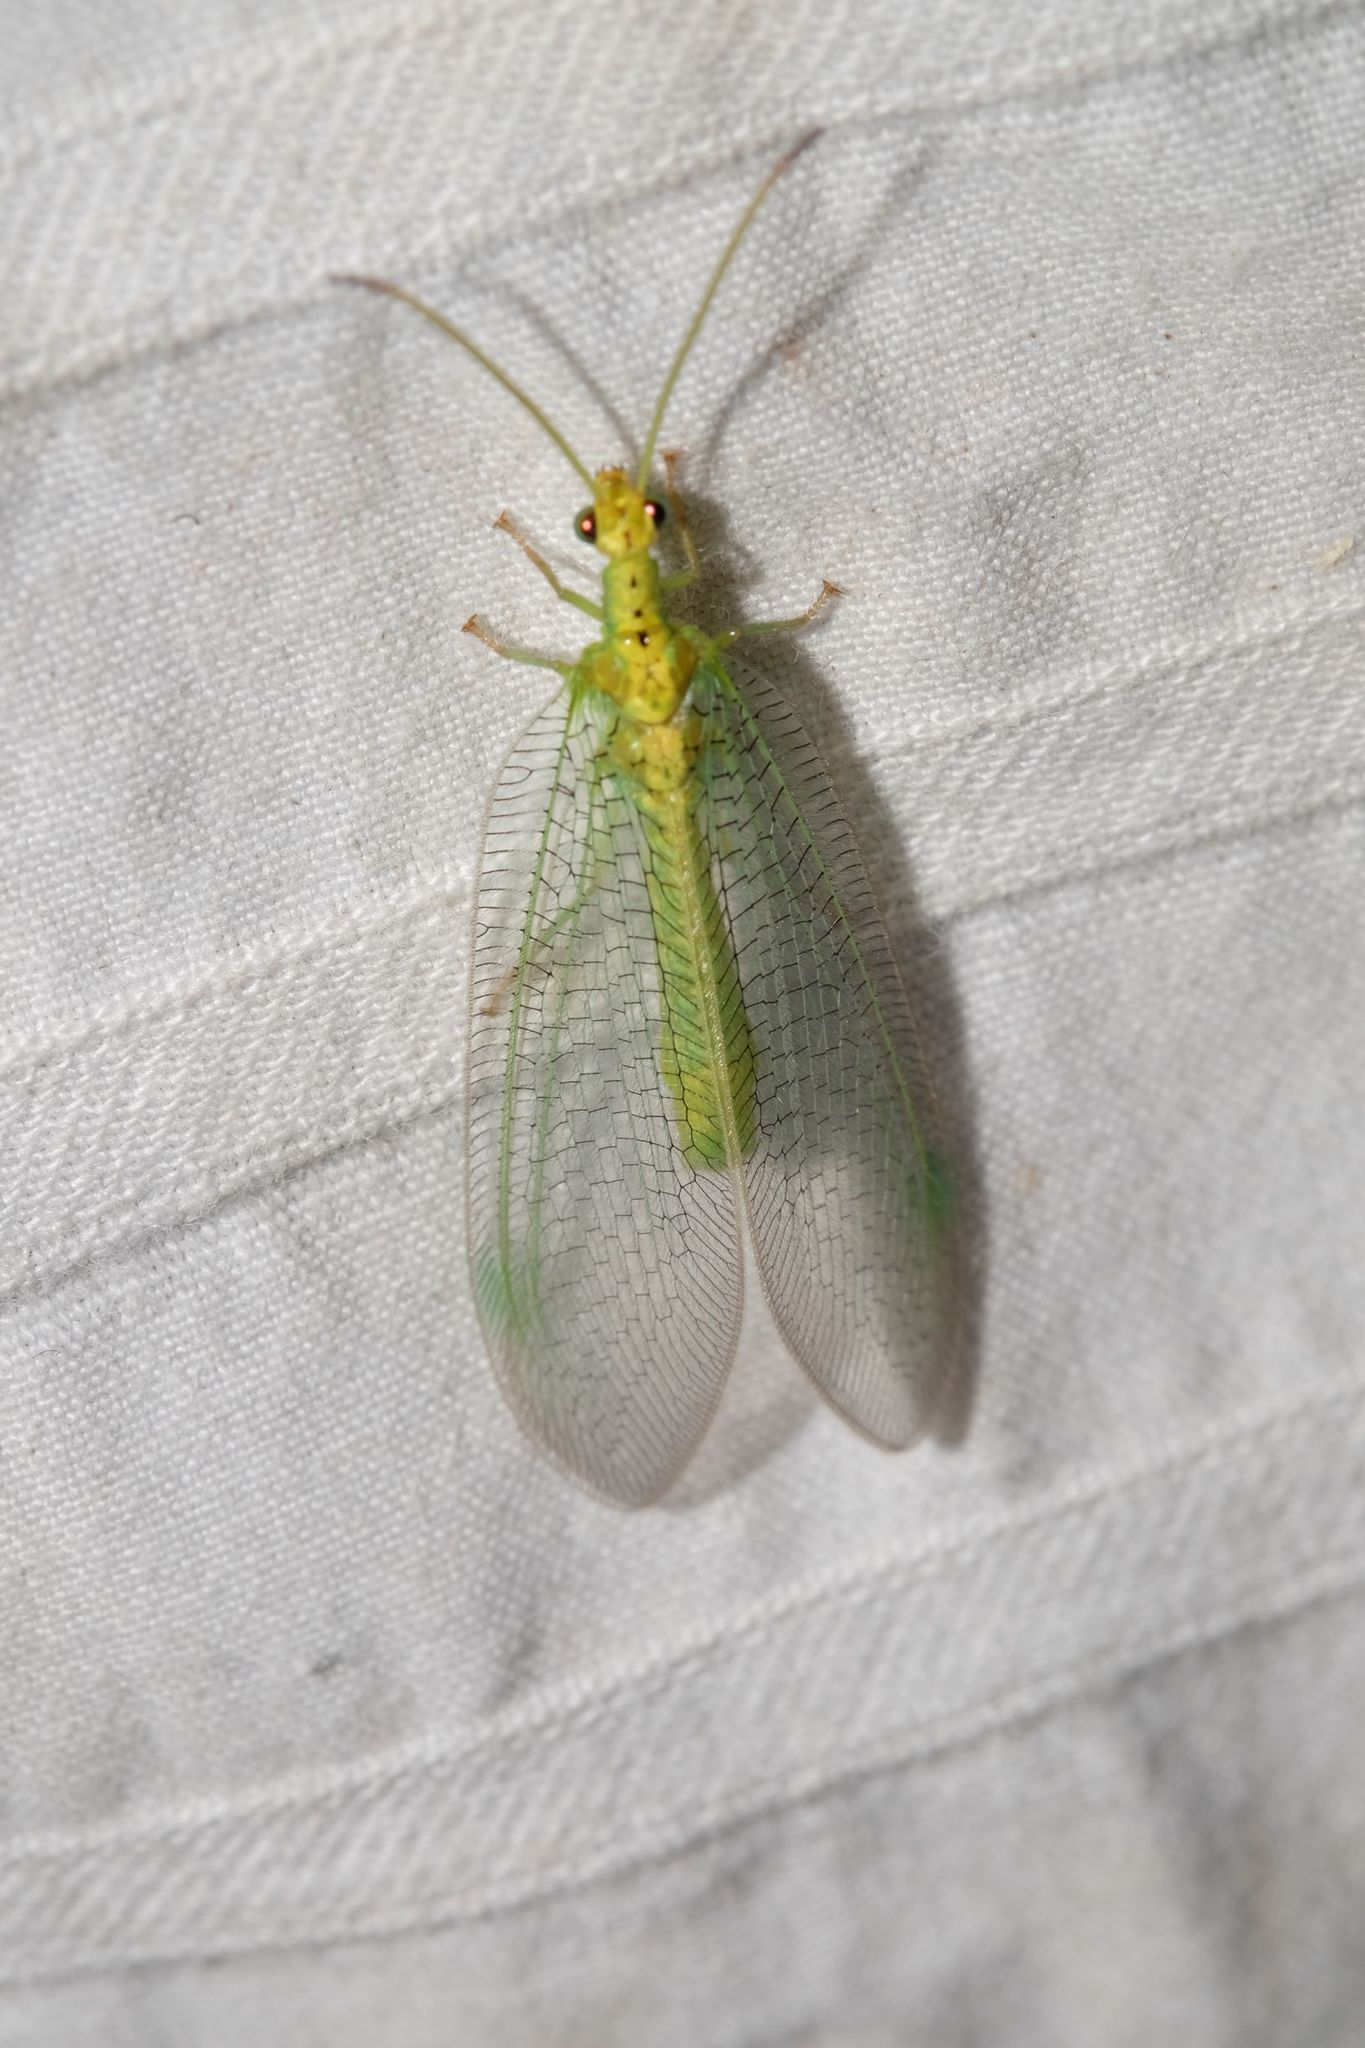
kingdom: Animalia
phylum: Arthropoda
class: Insecta
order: Neuroptera
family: Nymphidae
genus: Osmylops
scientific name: Osmylops sejunctus
